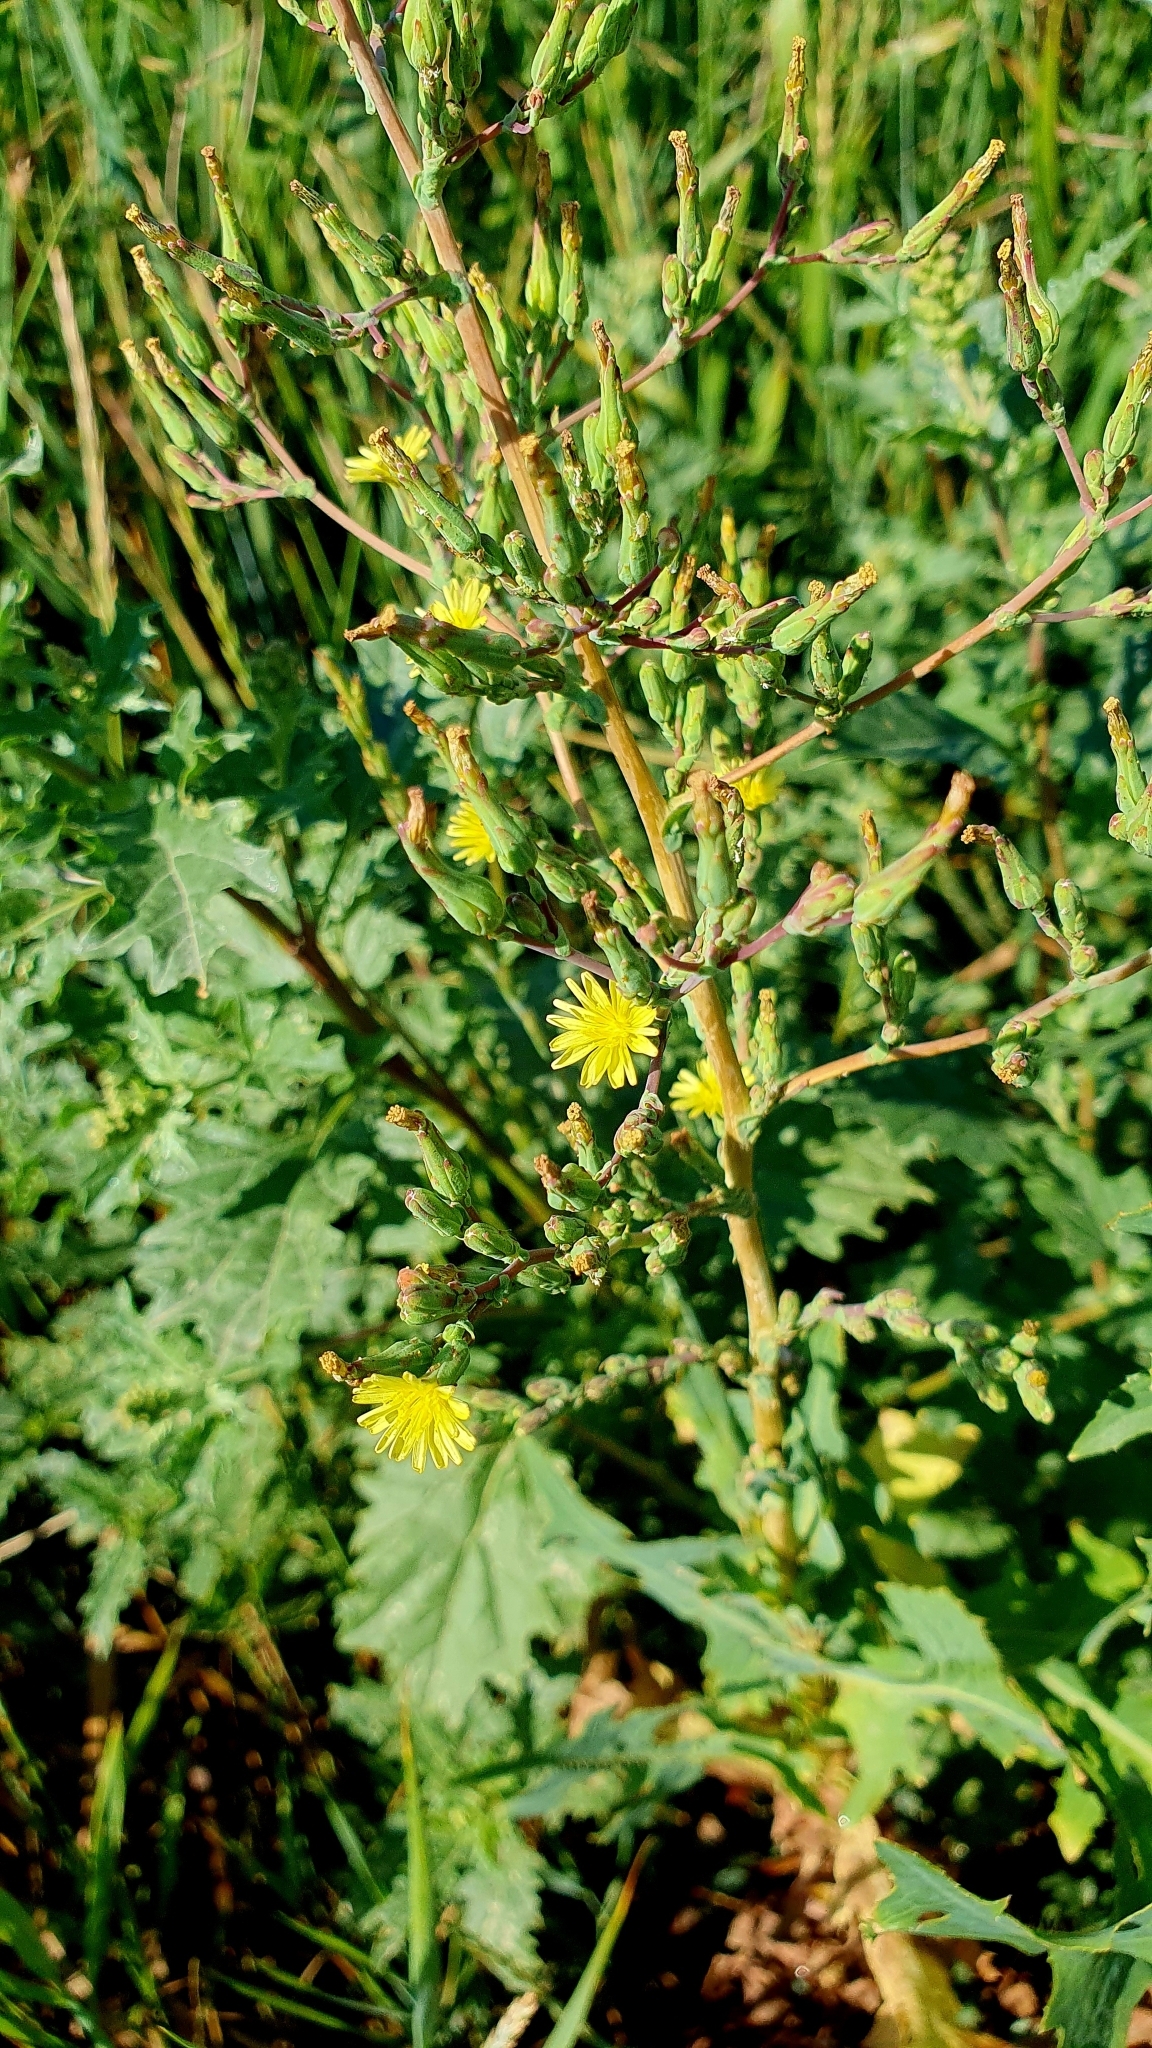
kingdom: Plantae
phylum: Tracheophyta
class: Magnoliopsida
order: Asterales
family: Asteraceae
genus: Lactuca
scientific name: Lactuca serriola
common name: Prickly lettuce
